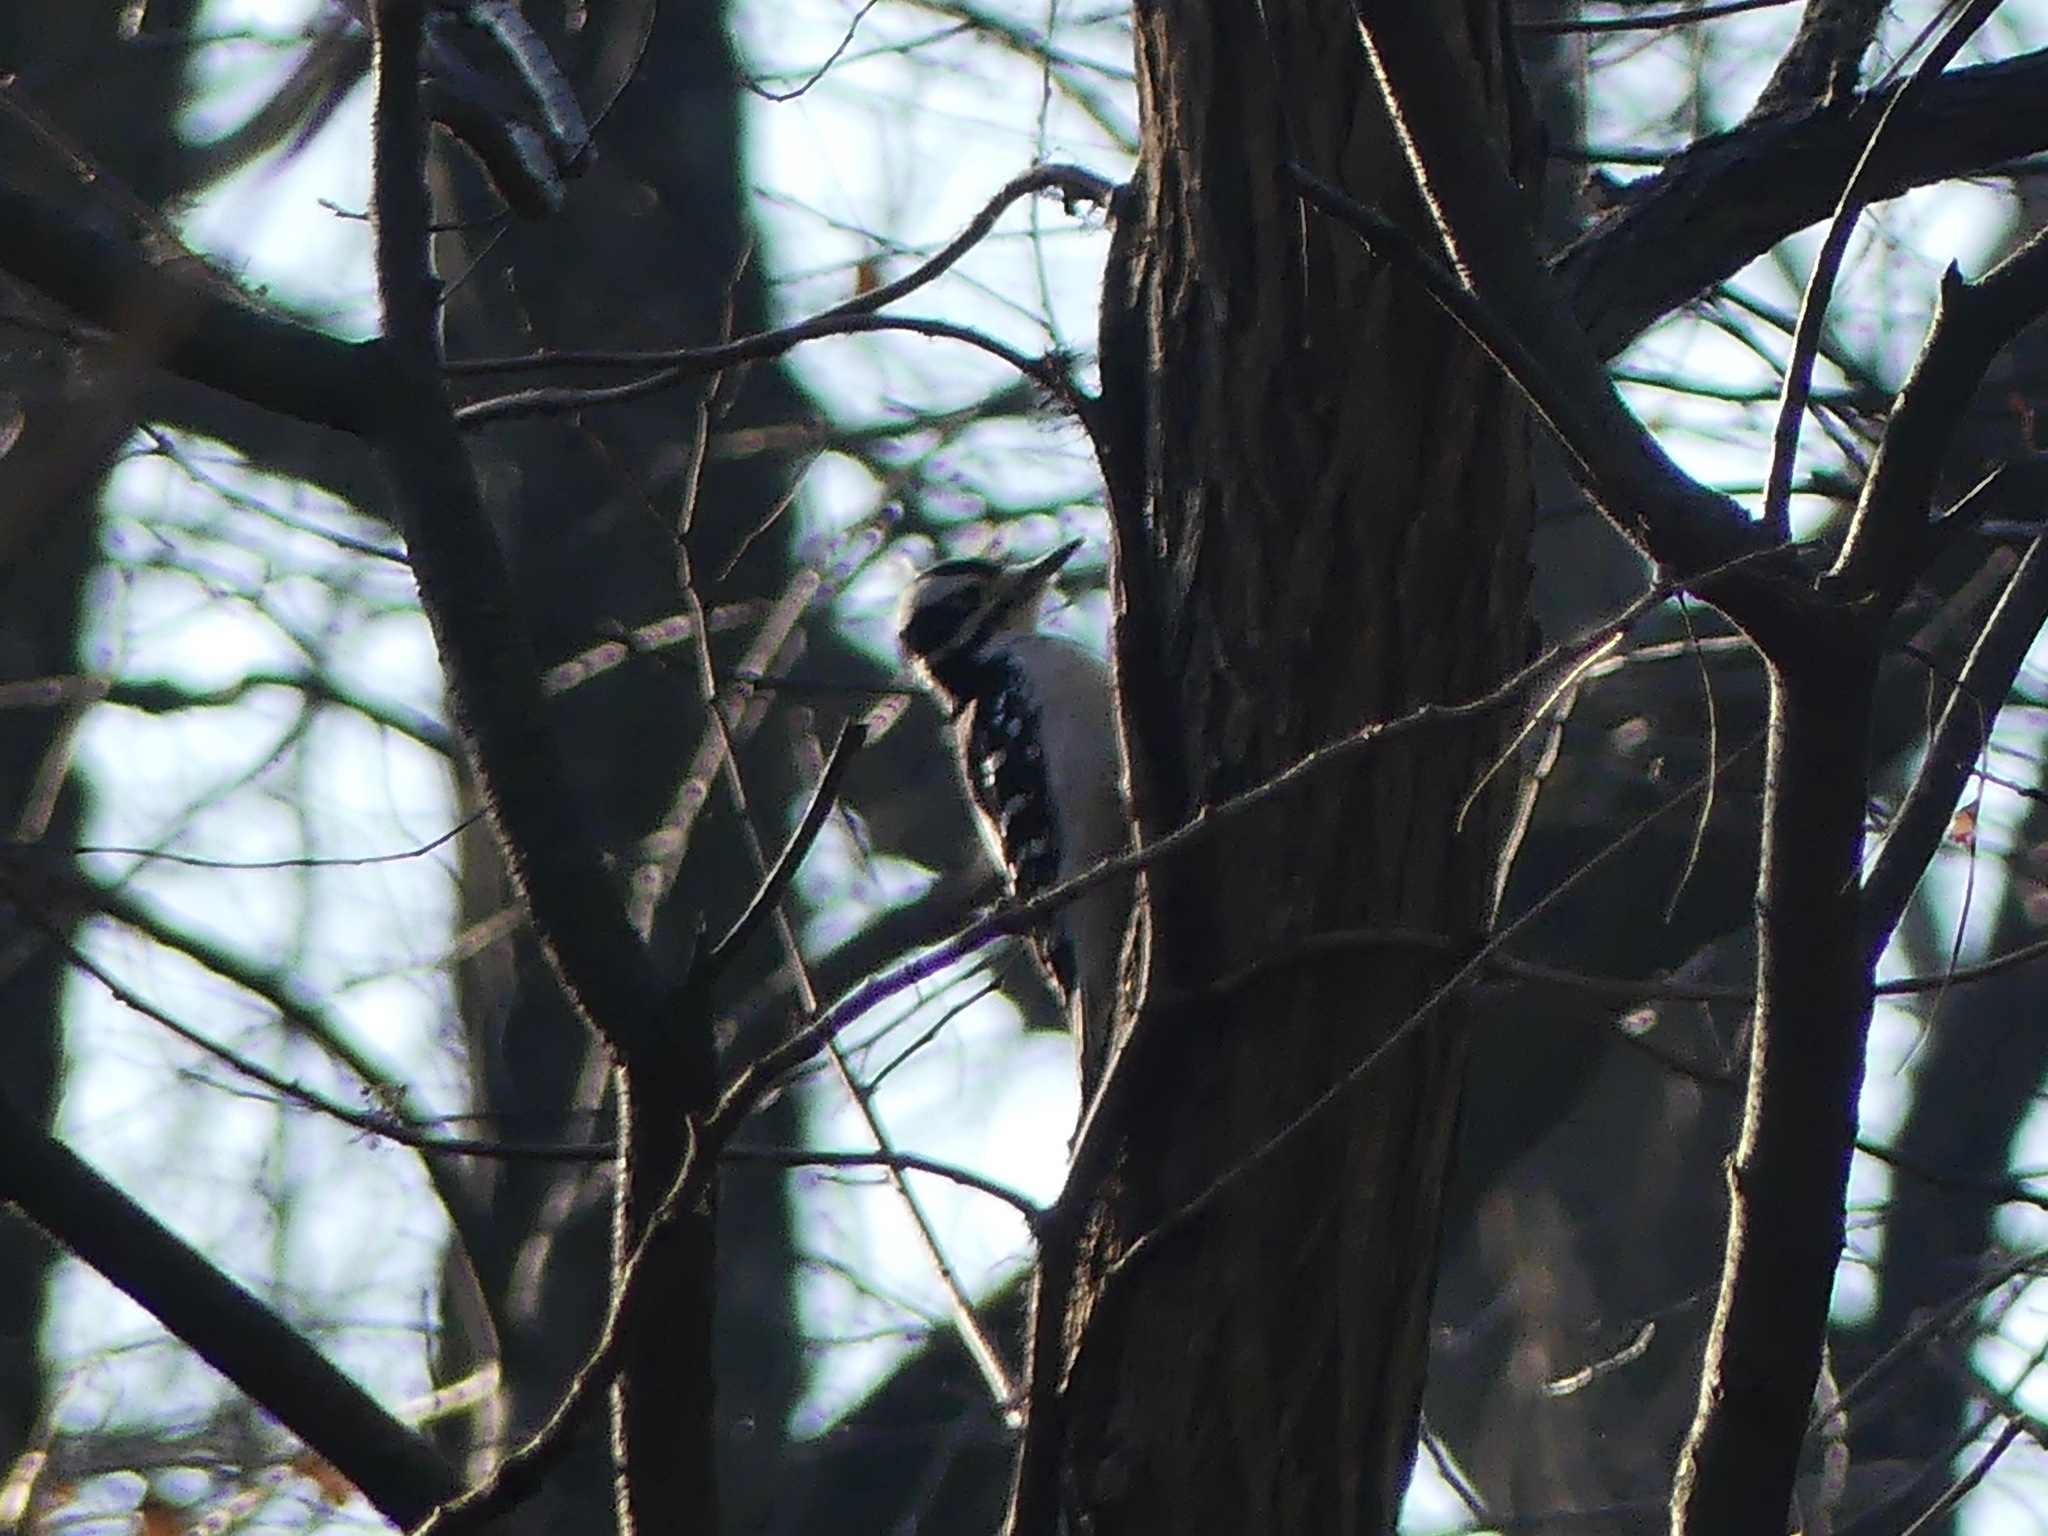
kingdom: Animalia
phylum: Chordata
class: Aves
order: Piciformes
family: Picidae
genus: Leuconotopicus
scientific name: Leuconotopicus villosus
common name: Hairy woodpecker
